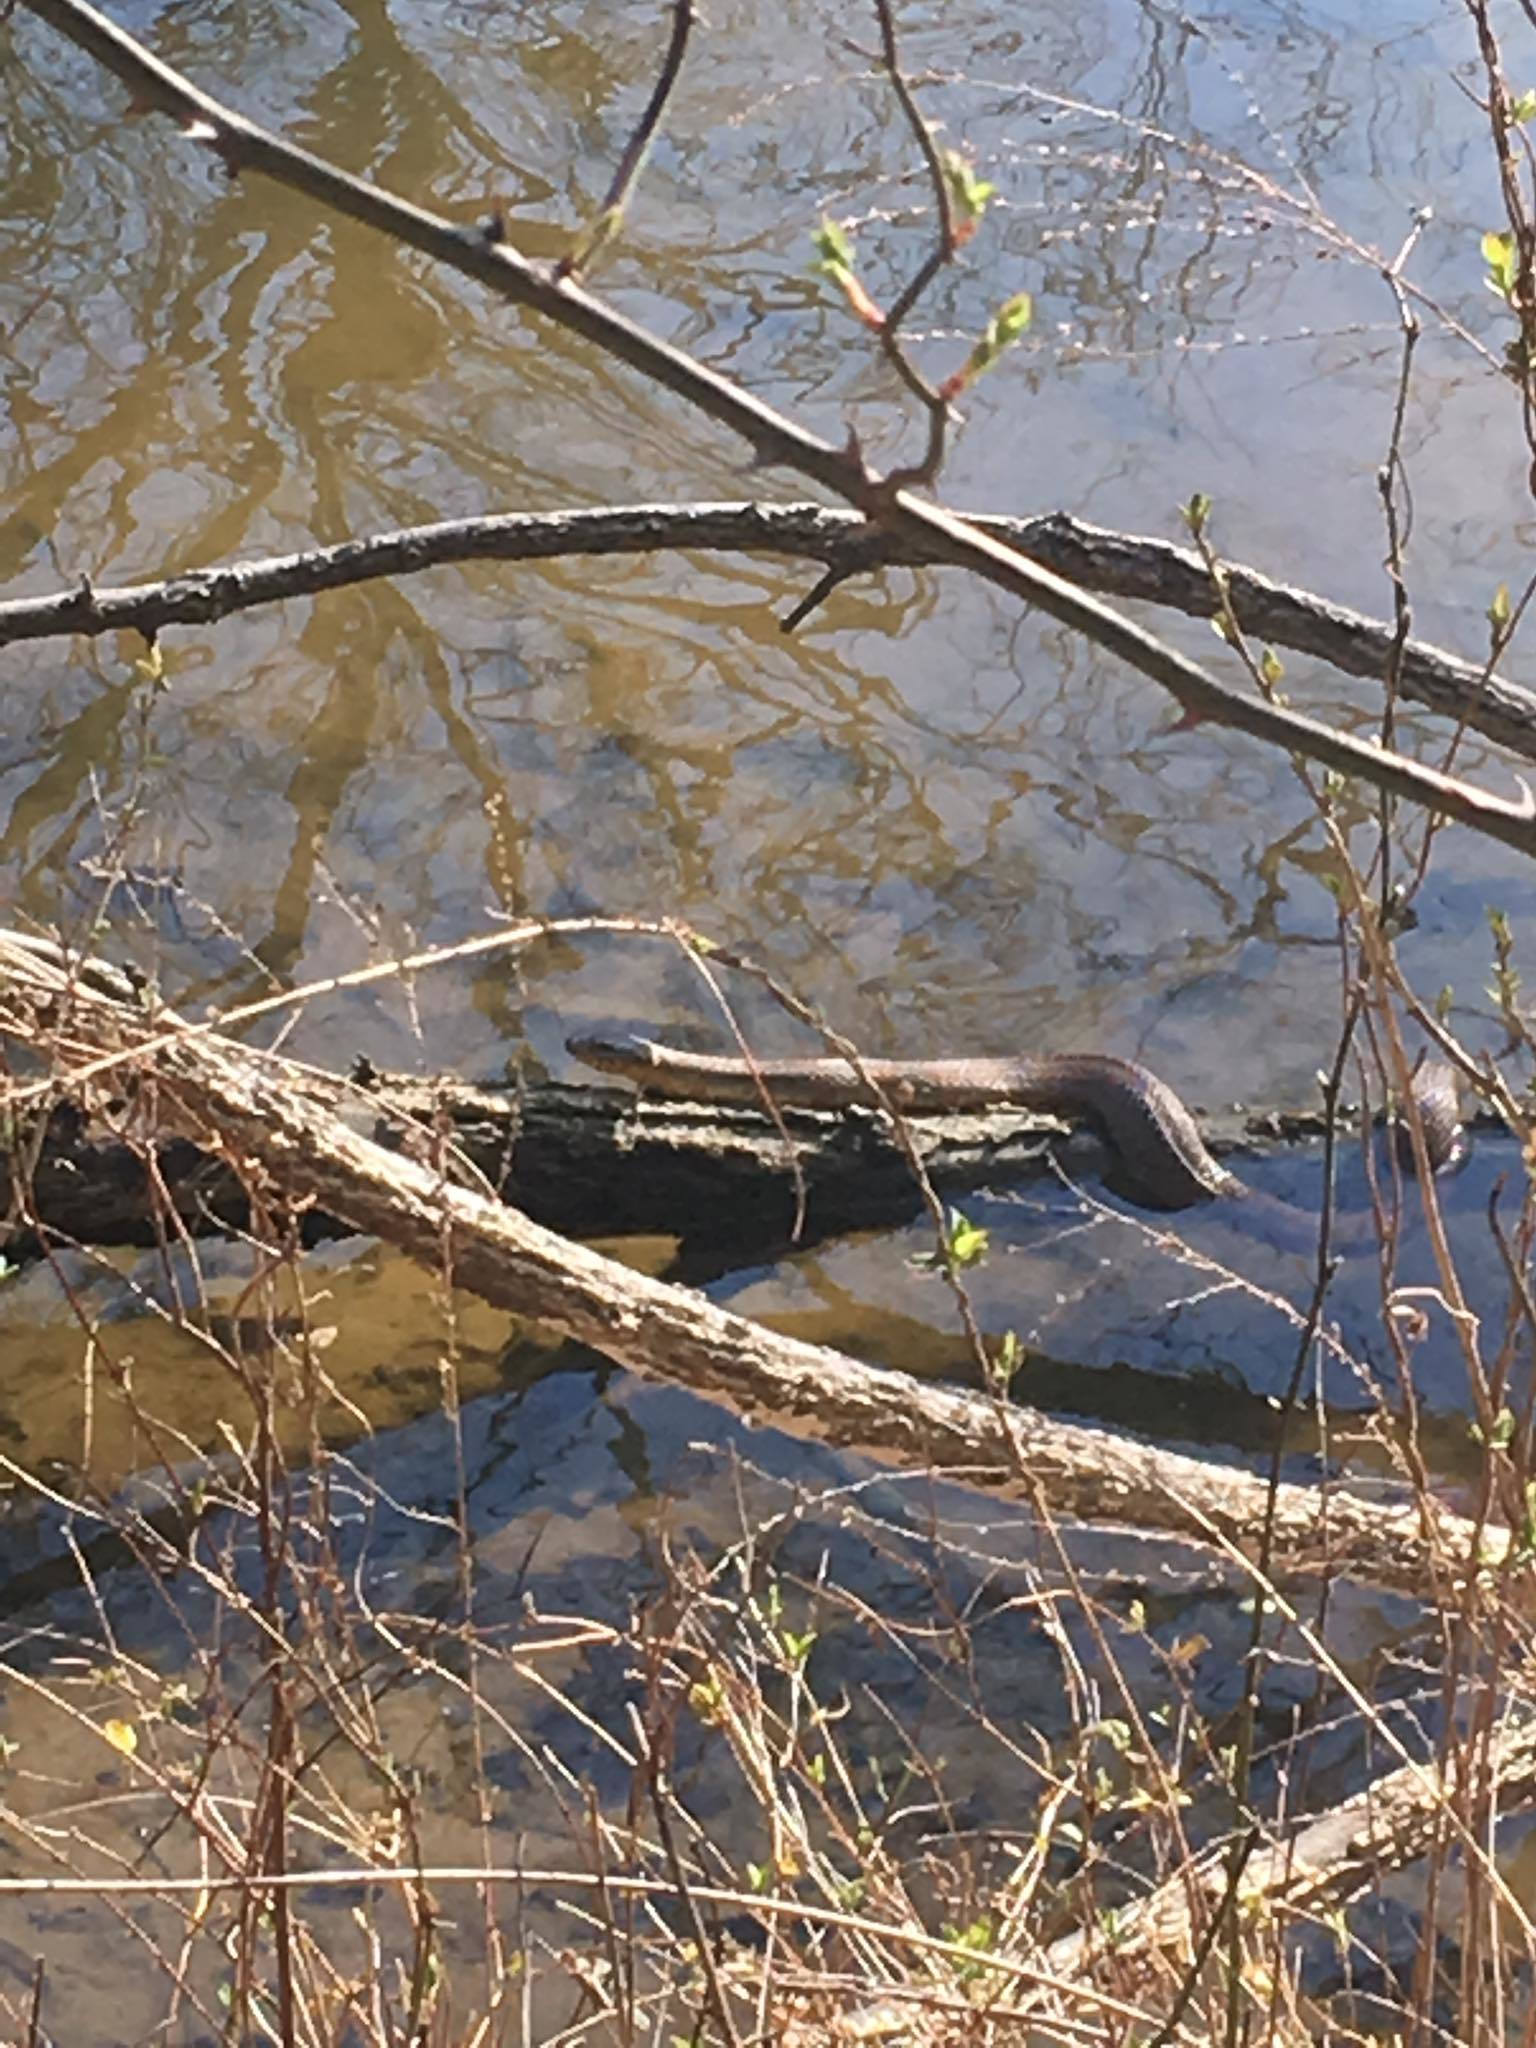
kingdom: Animalia
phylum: Chordata
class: Squamata
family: Colubridae
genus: Nerodia
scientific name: Nerodia sipedon
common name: Northern water snake
